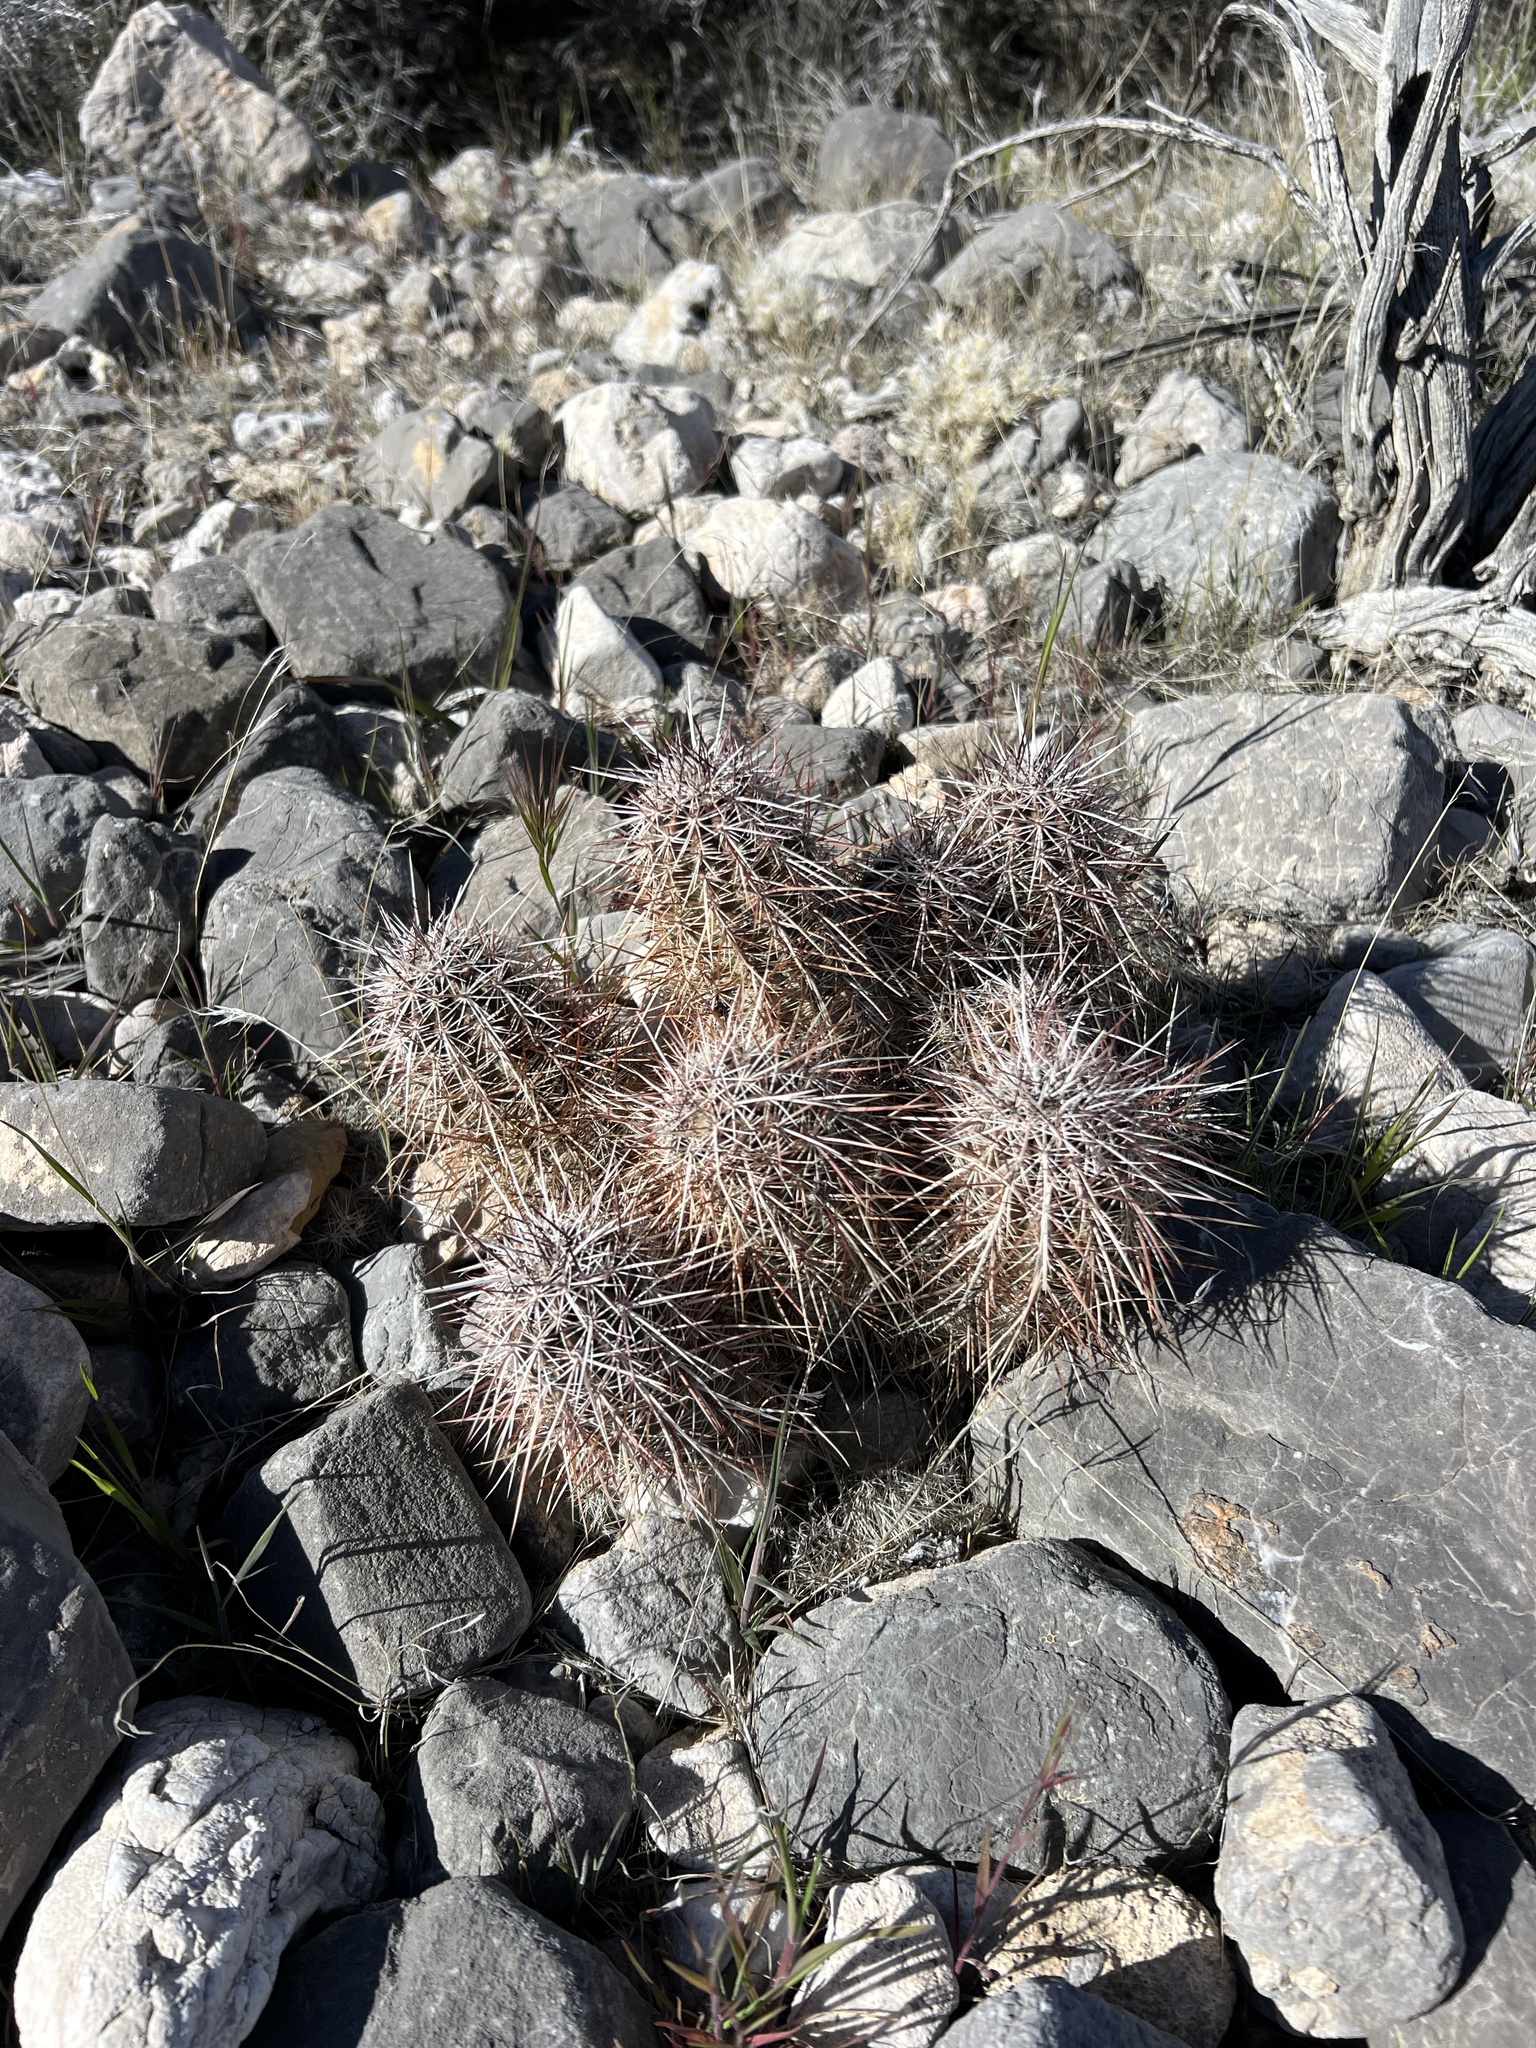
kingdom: Plantae
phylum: Tracheophyta
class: Magnoliopsida
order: Caryophyllales
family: Cactaceae
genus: Echinocereus
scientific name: Echinocereus engelmannii
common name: Engelmann's hedgehog cactus
